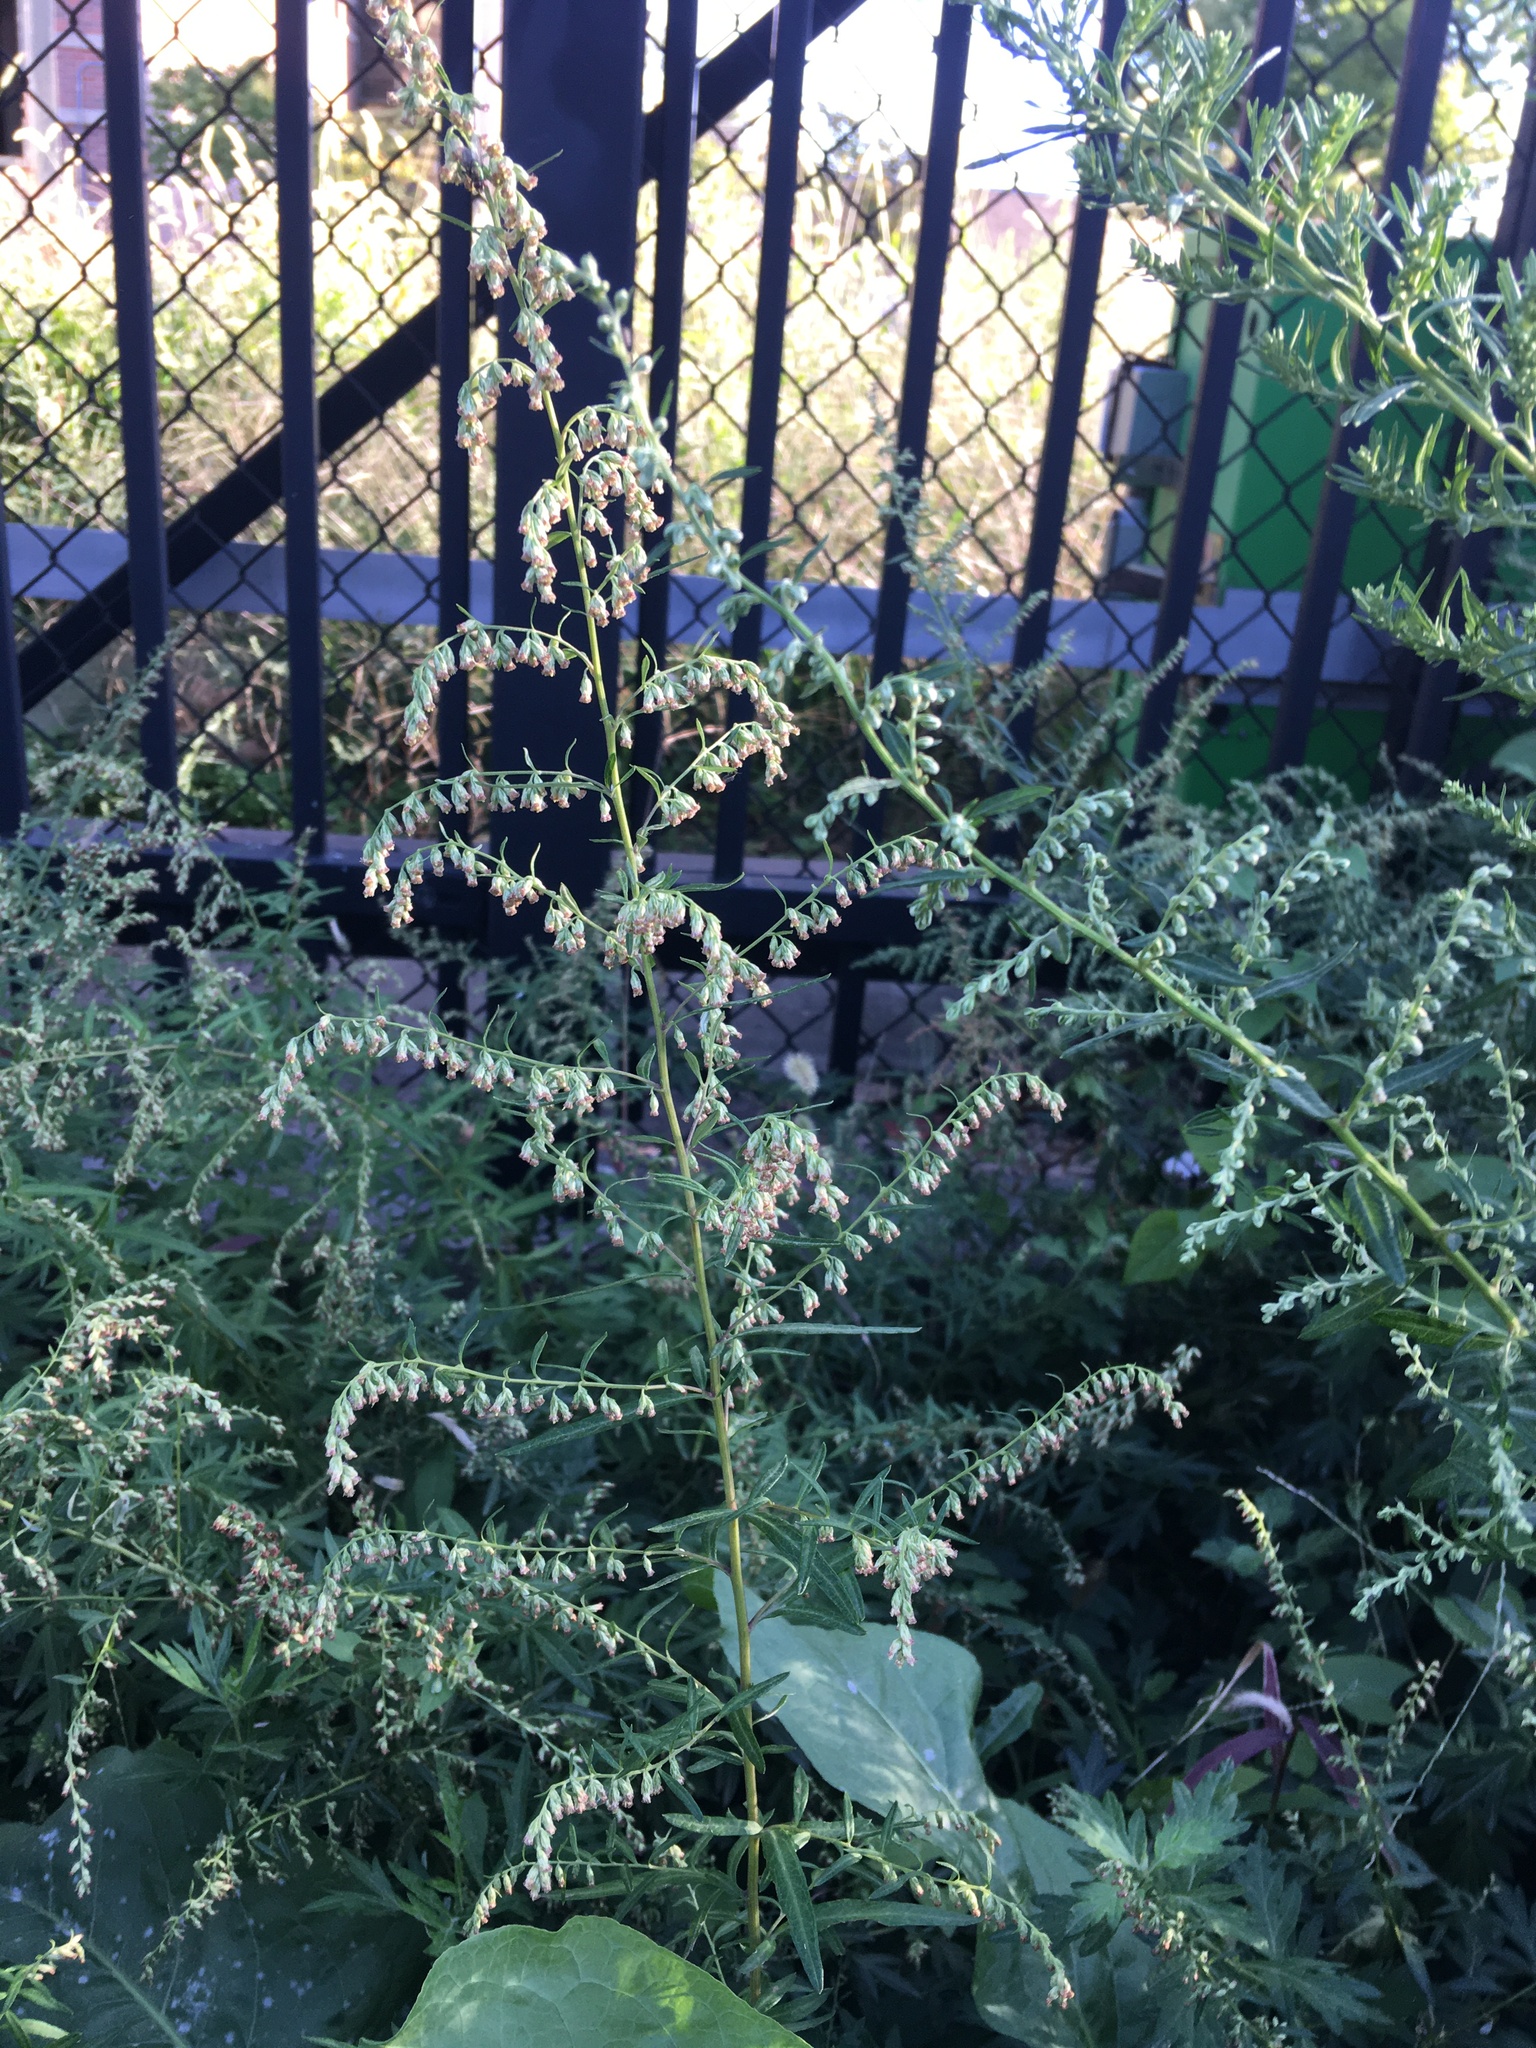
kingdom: Plantae
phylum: Tracheophyta
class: Magnoliopsida
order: Asterales
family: Asteraceae
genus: Artemisia
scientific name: Artemisia vulgaris
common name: Mugwort
